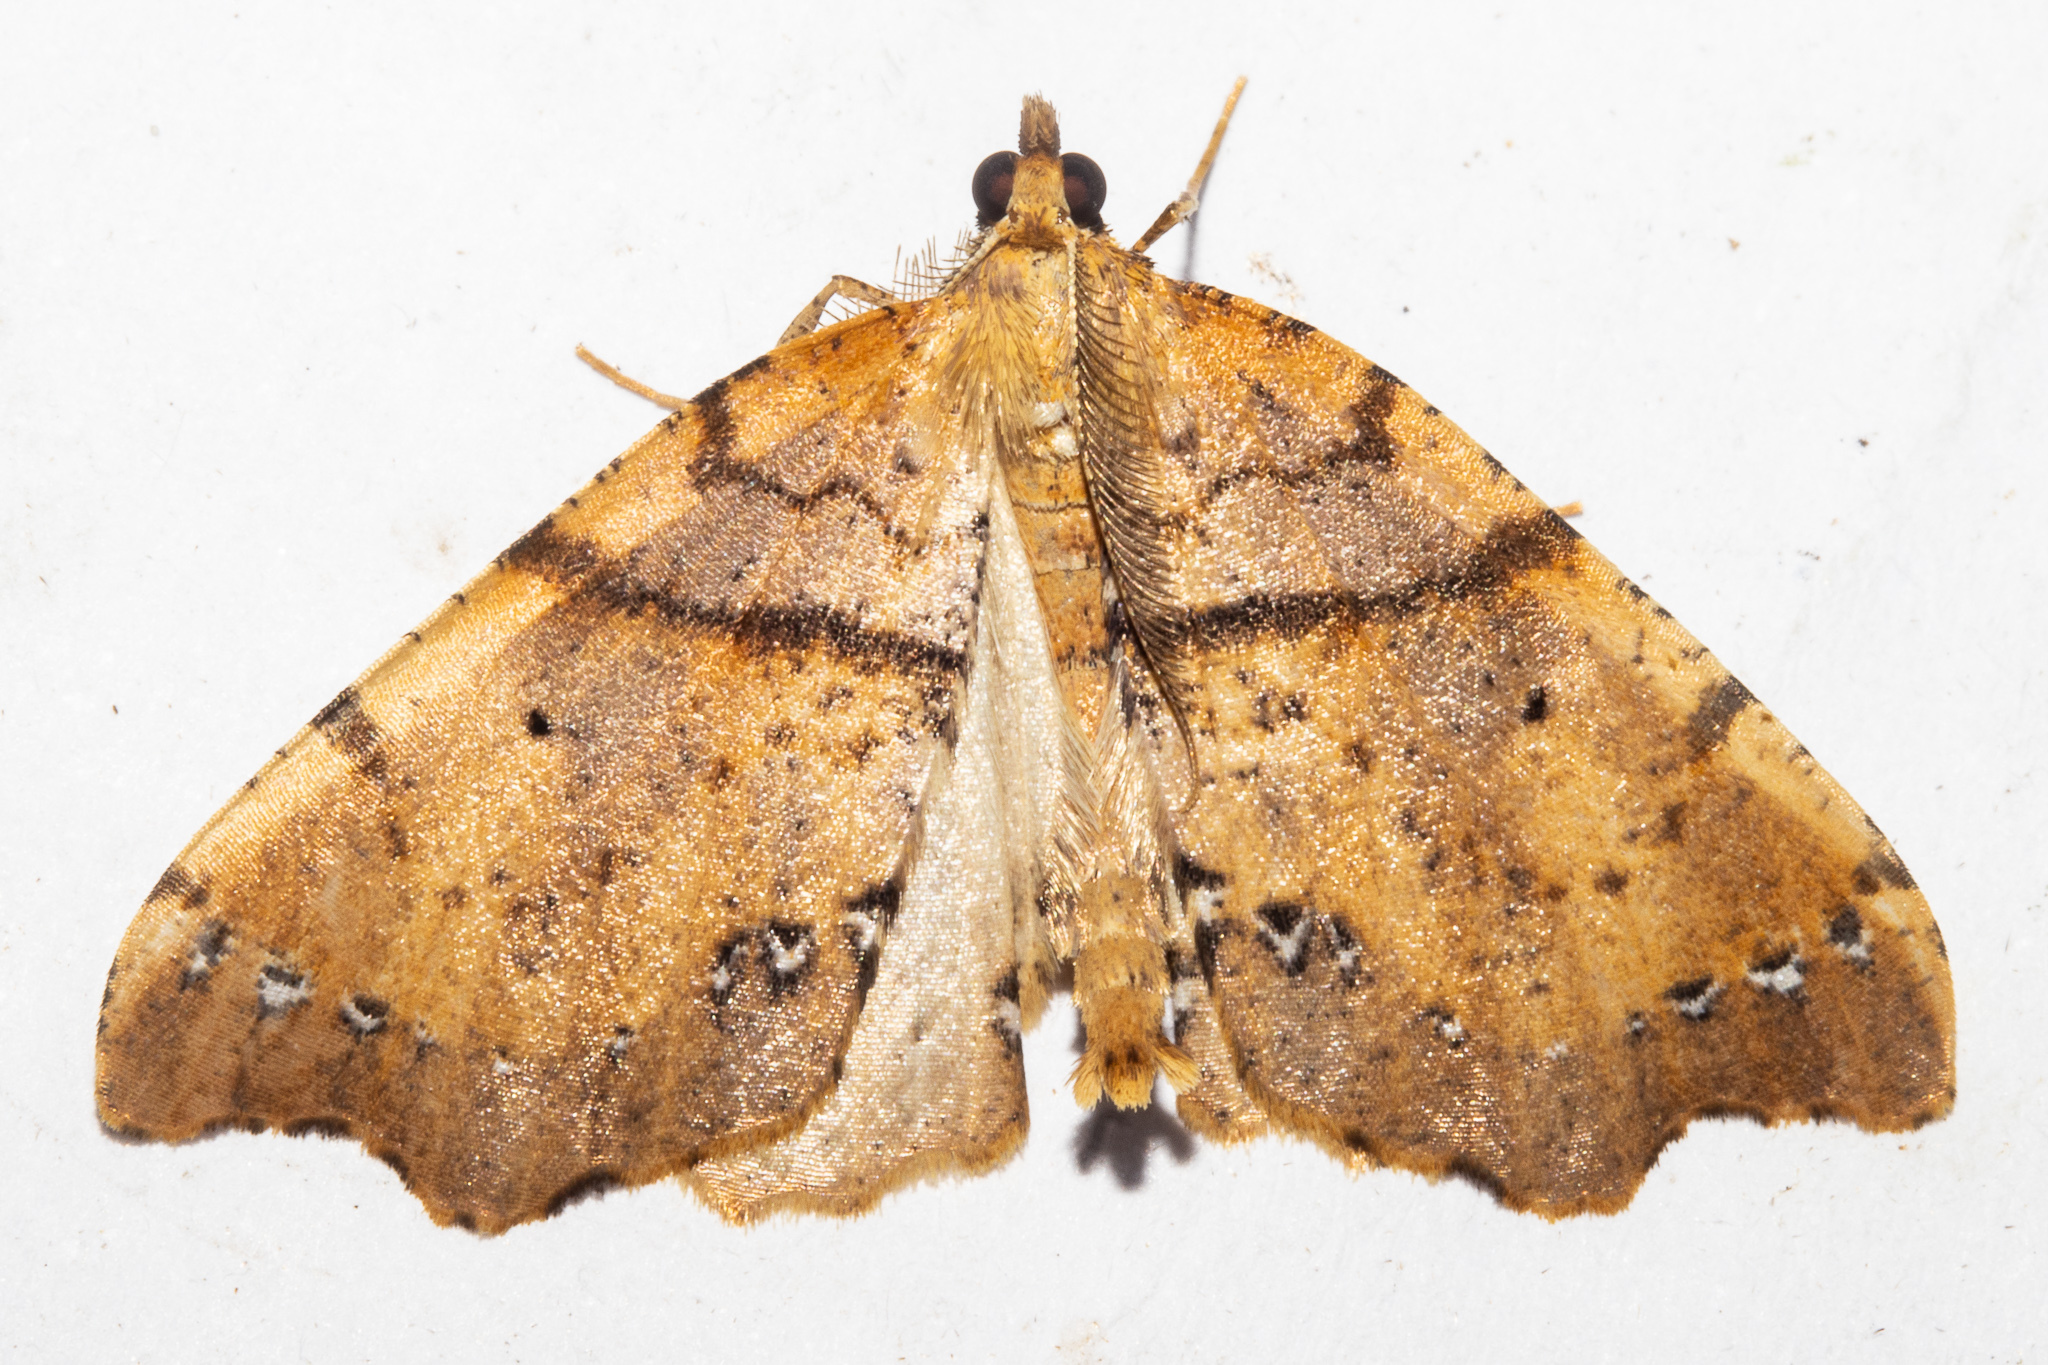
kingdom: Animalia
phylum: Arthropoda
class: Insecta
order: Lepidoptera
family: Geometridae
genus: Chalastra
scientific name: Chalastra pellurgata
